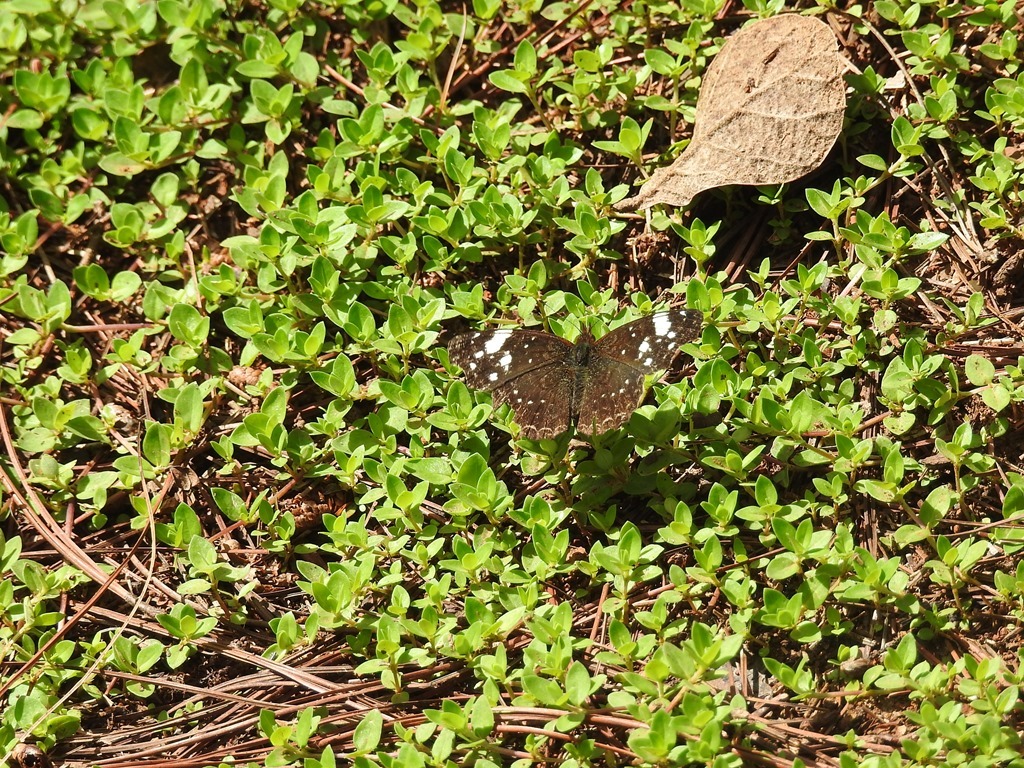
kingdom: Animalia
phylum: Arthropoda
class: Insecta
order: Lepidoptera
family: Nymphalidae
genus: Anthanassa
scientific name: Anthanassa sitalces
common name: Montane crescent
